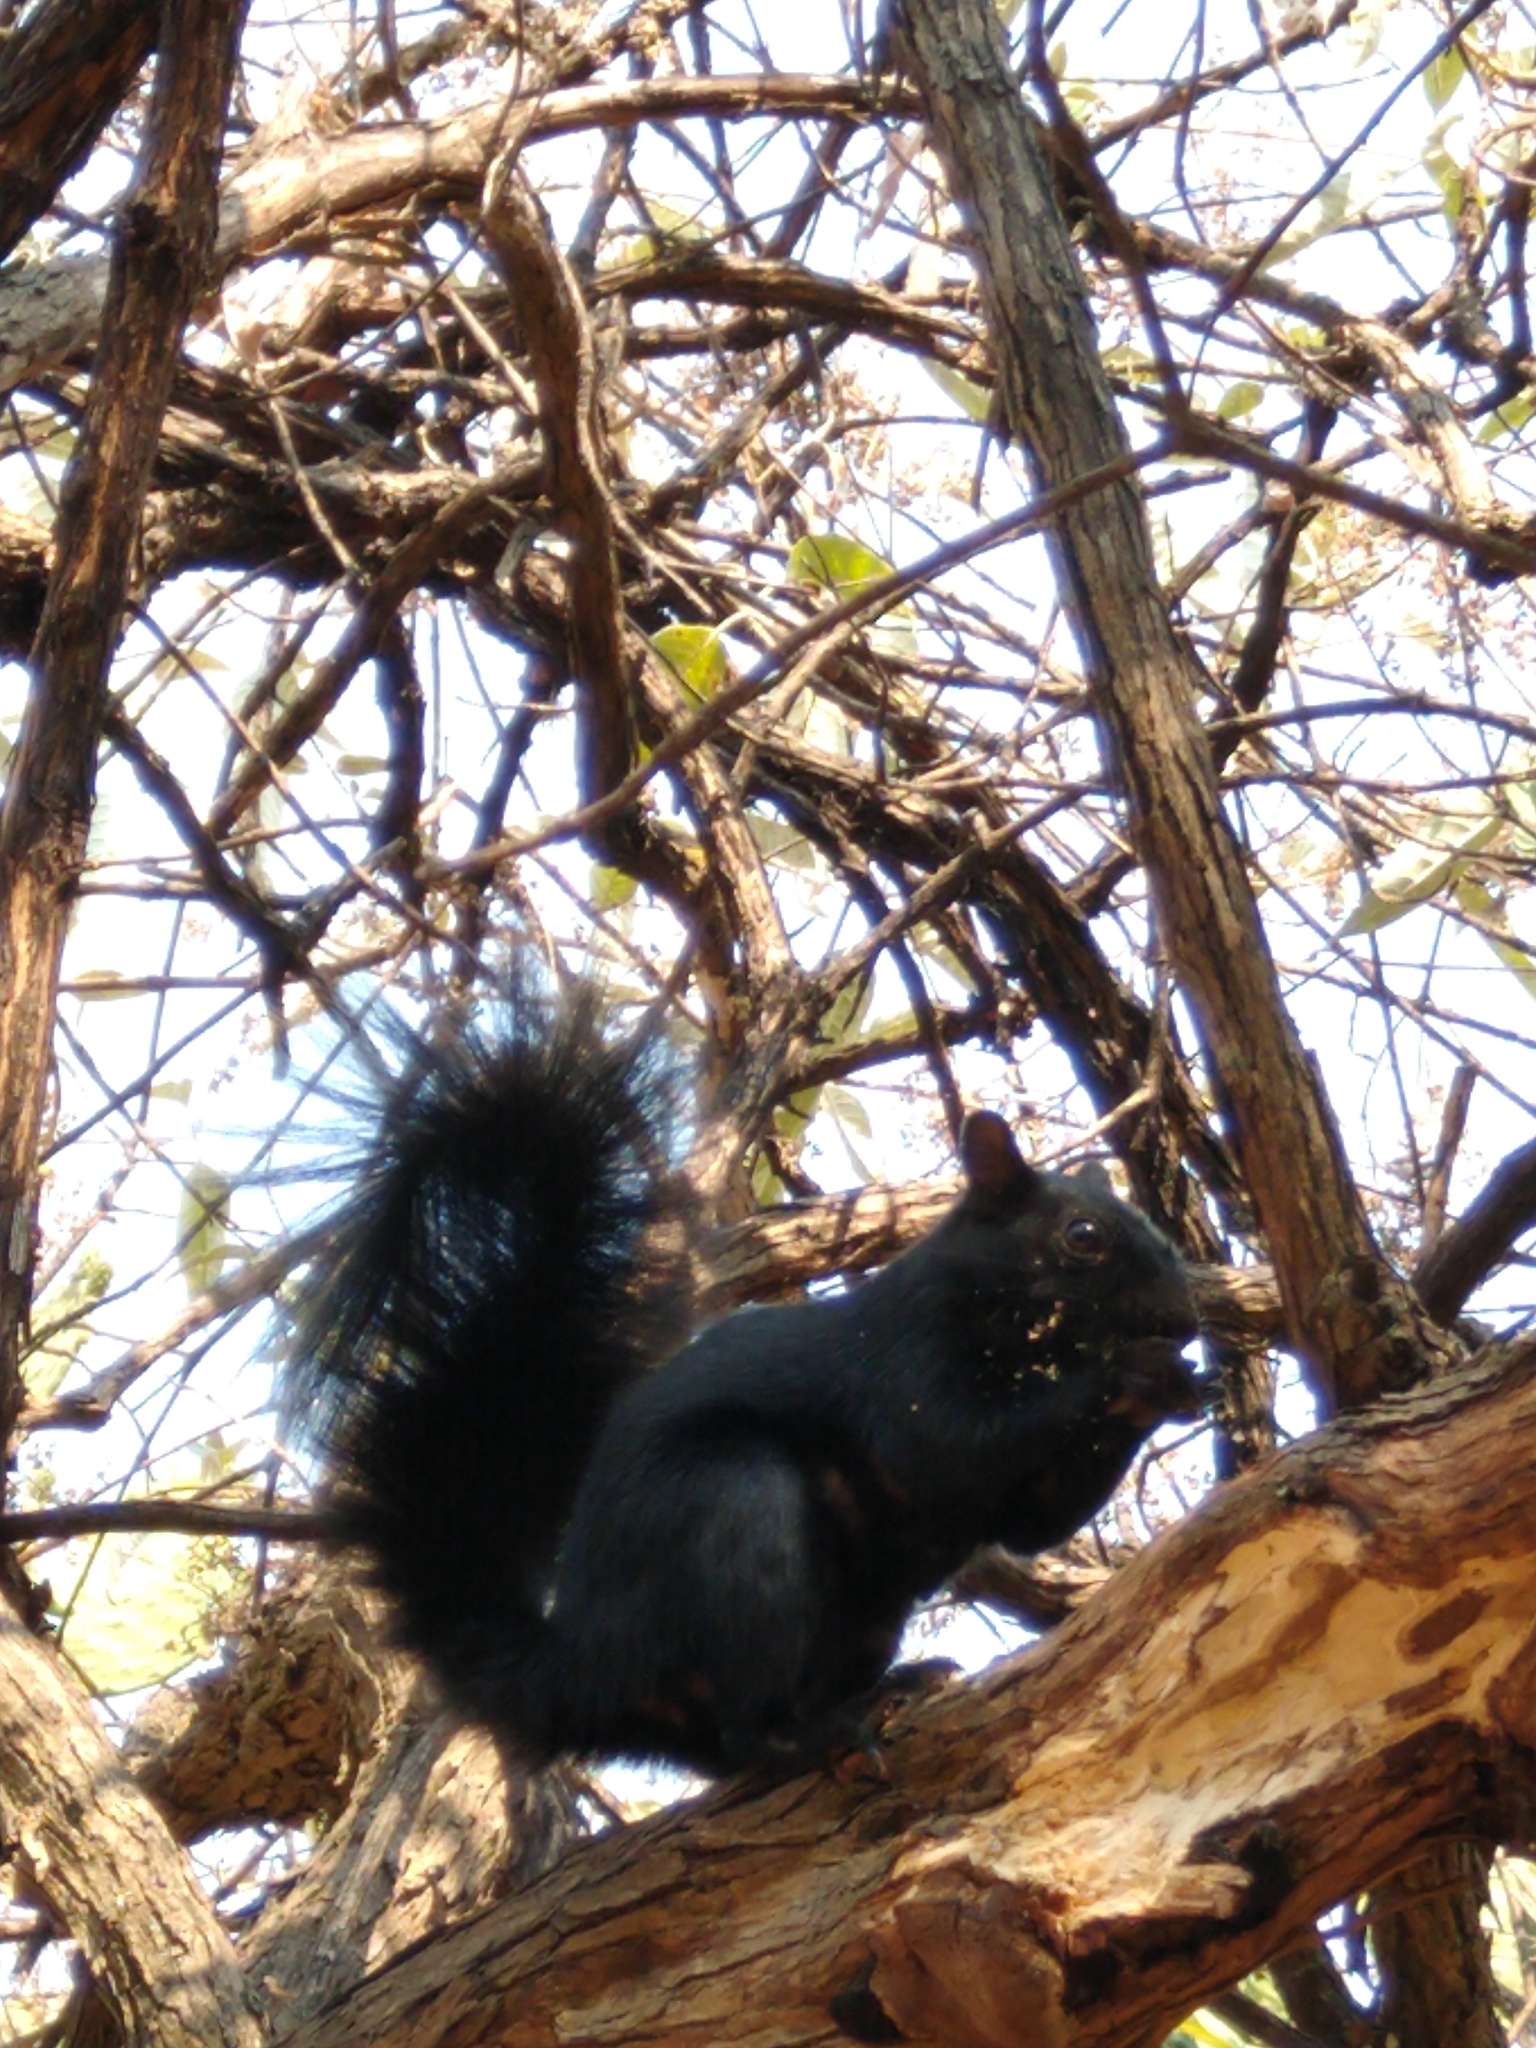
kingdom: Animalia
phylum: Chordata
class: Mammalia
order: Rodentia
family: Sciuridae
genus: Sciurus
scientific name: Sciurus aureogaster
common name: Red-bellied squirrel
